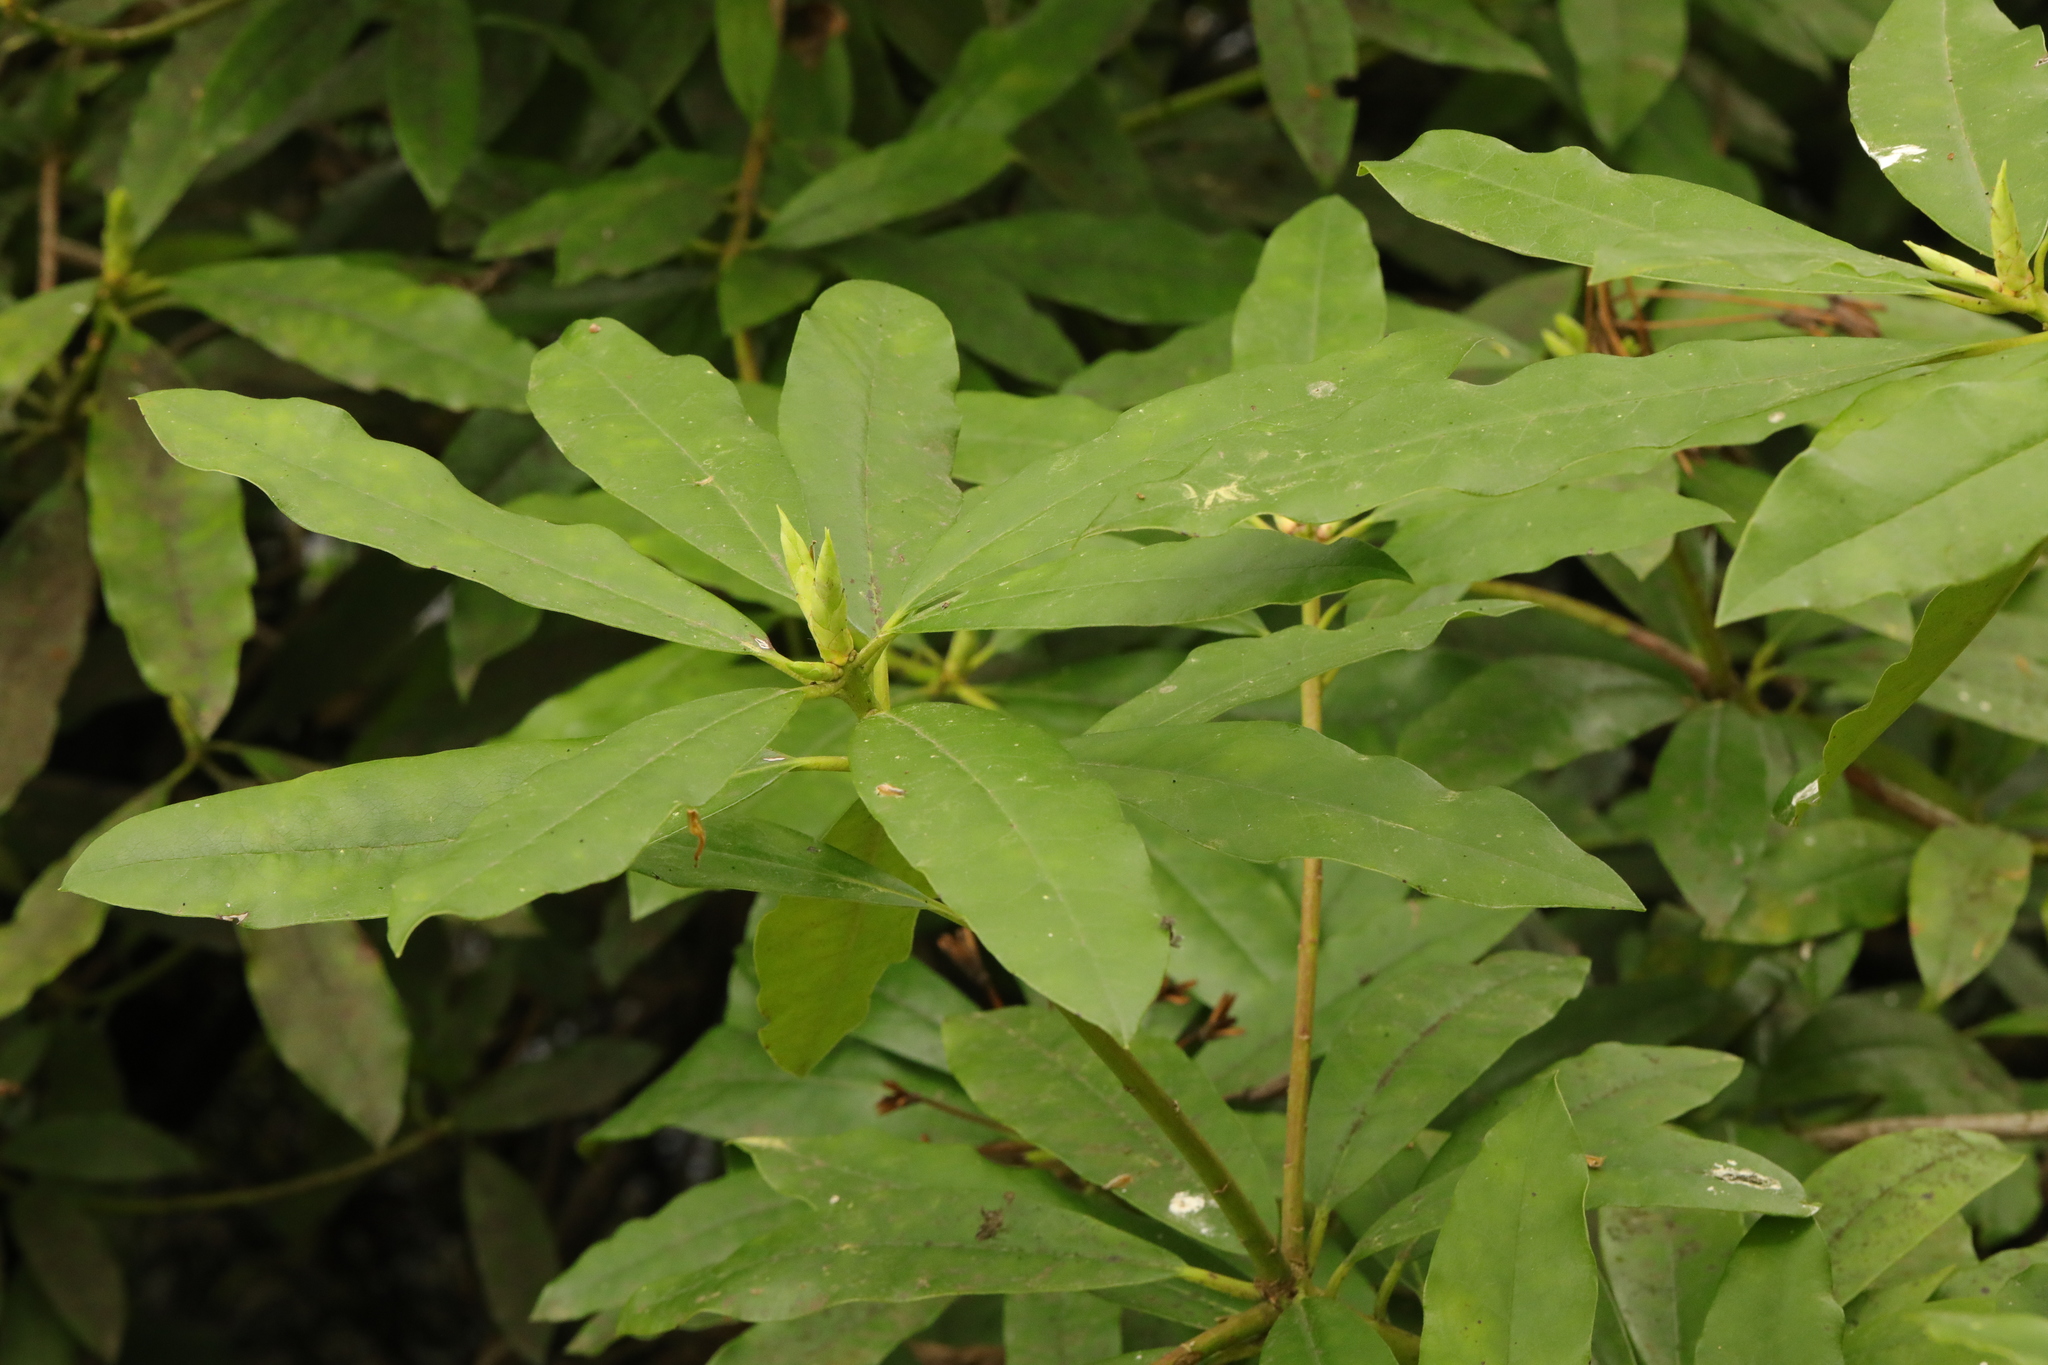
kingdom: Plantae
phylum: Tracheophyta
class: Magnoliopsida
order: Ericales
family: Ericaceae
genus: Rhododendron
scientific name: Rhododendron ponticum
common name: Rhododendron
